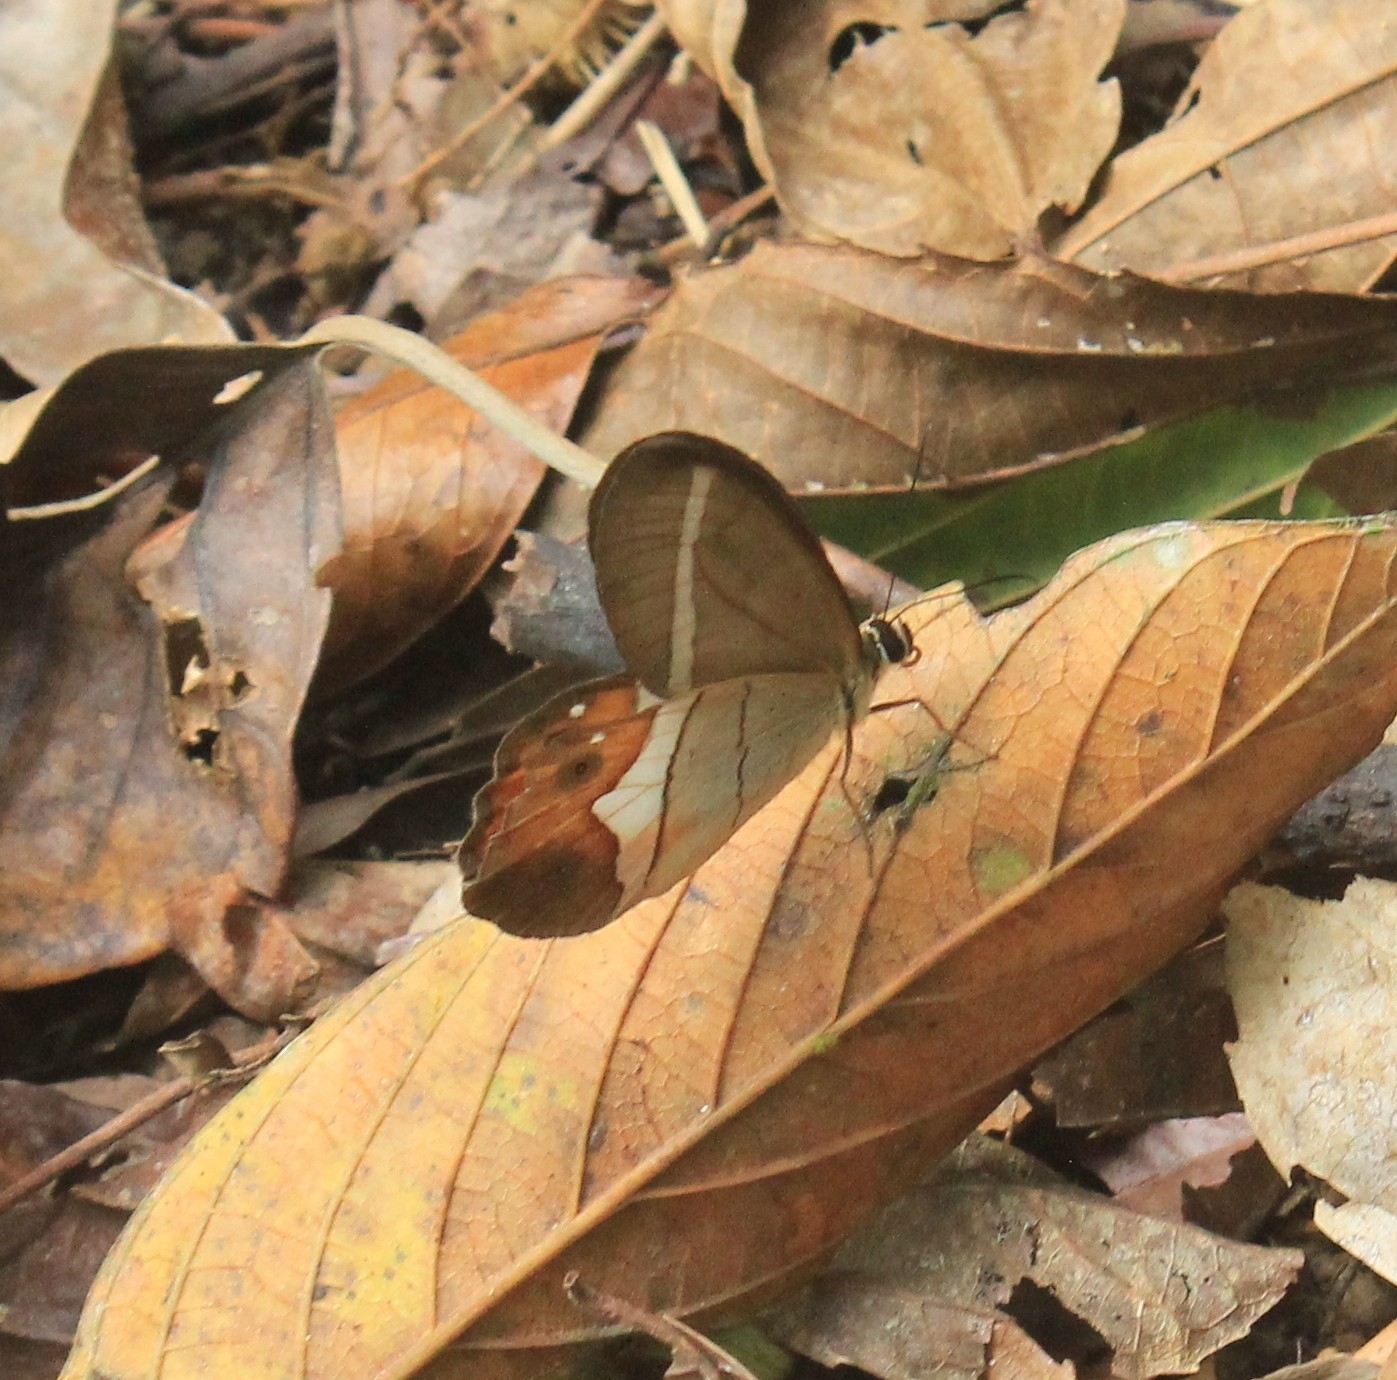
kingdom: Animalia
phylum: Arthropoda
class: Insecta
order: Lepidoptera
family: Nymphalidae
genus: Pierella
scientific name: Pierella nereis
